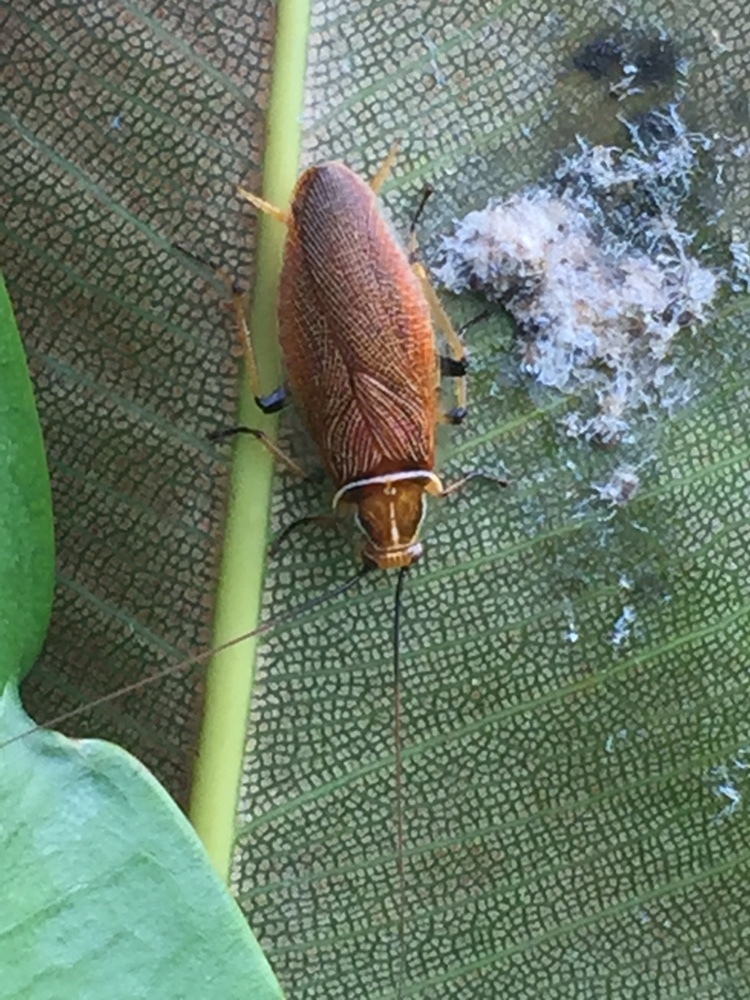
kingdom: Animalia
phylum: Arthropoda
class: Insecta
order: Blattodea
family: Ectobiidae
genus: Balta
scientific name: Balta bicolor
